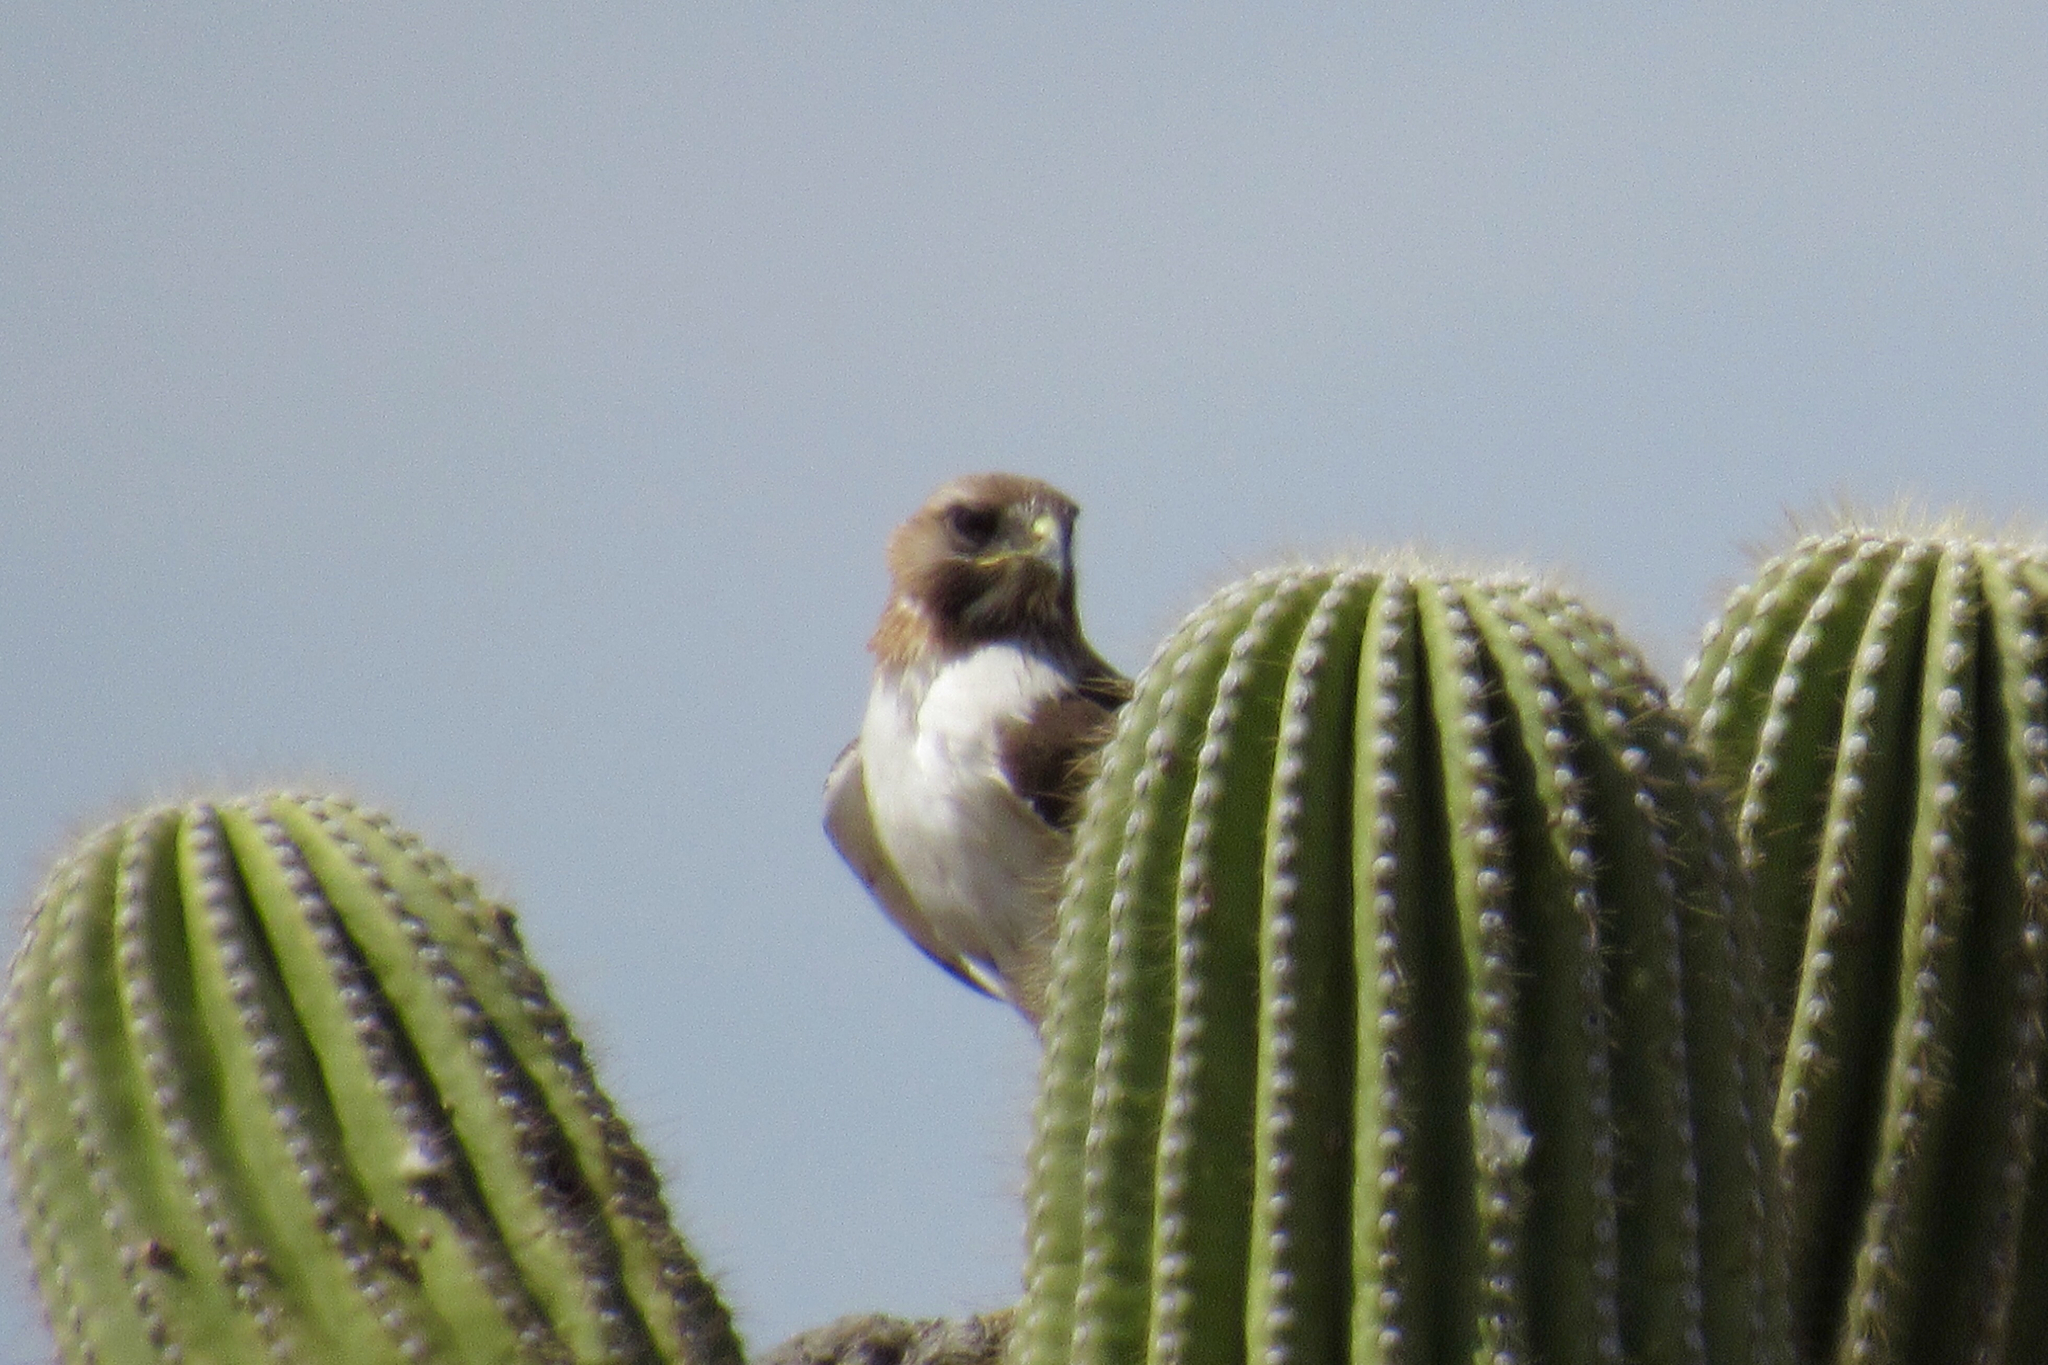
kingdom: Animalia
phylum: Chordata
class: Aves
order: Accipitriformes
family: Accipitridae
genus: Buteo
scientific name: Buteo jamaicensis
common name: Red-tailed hawk
